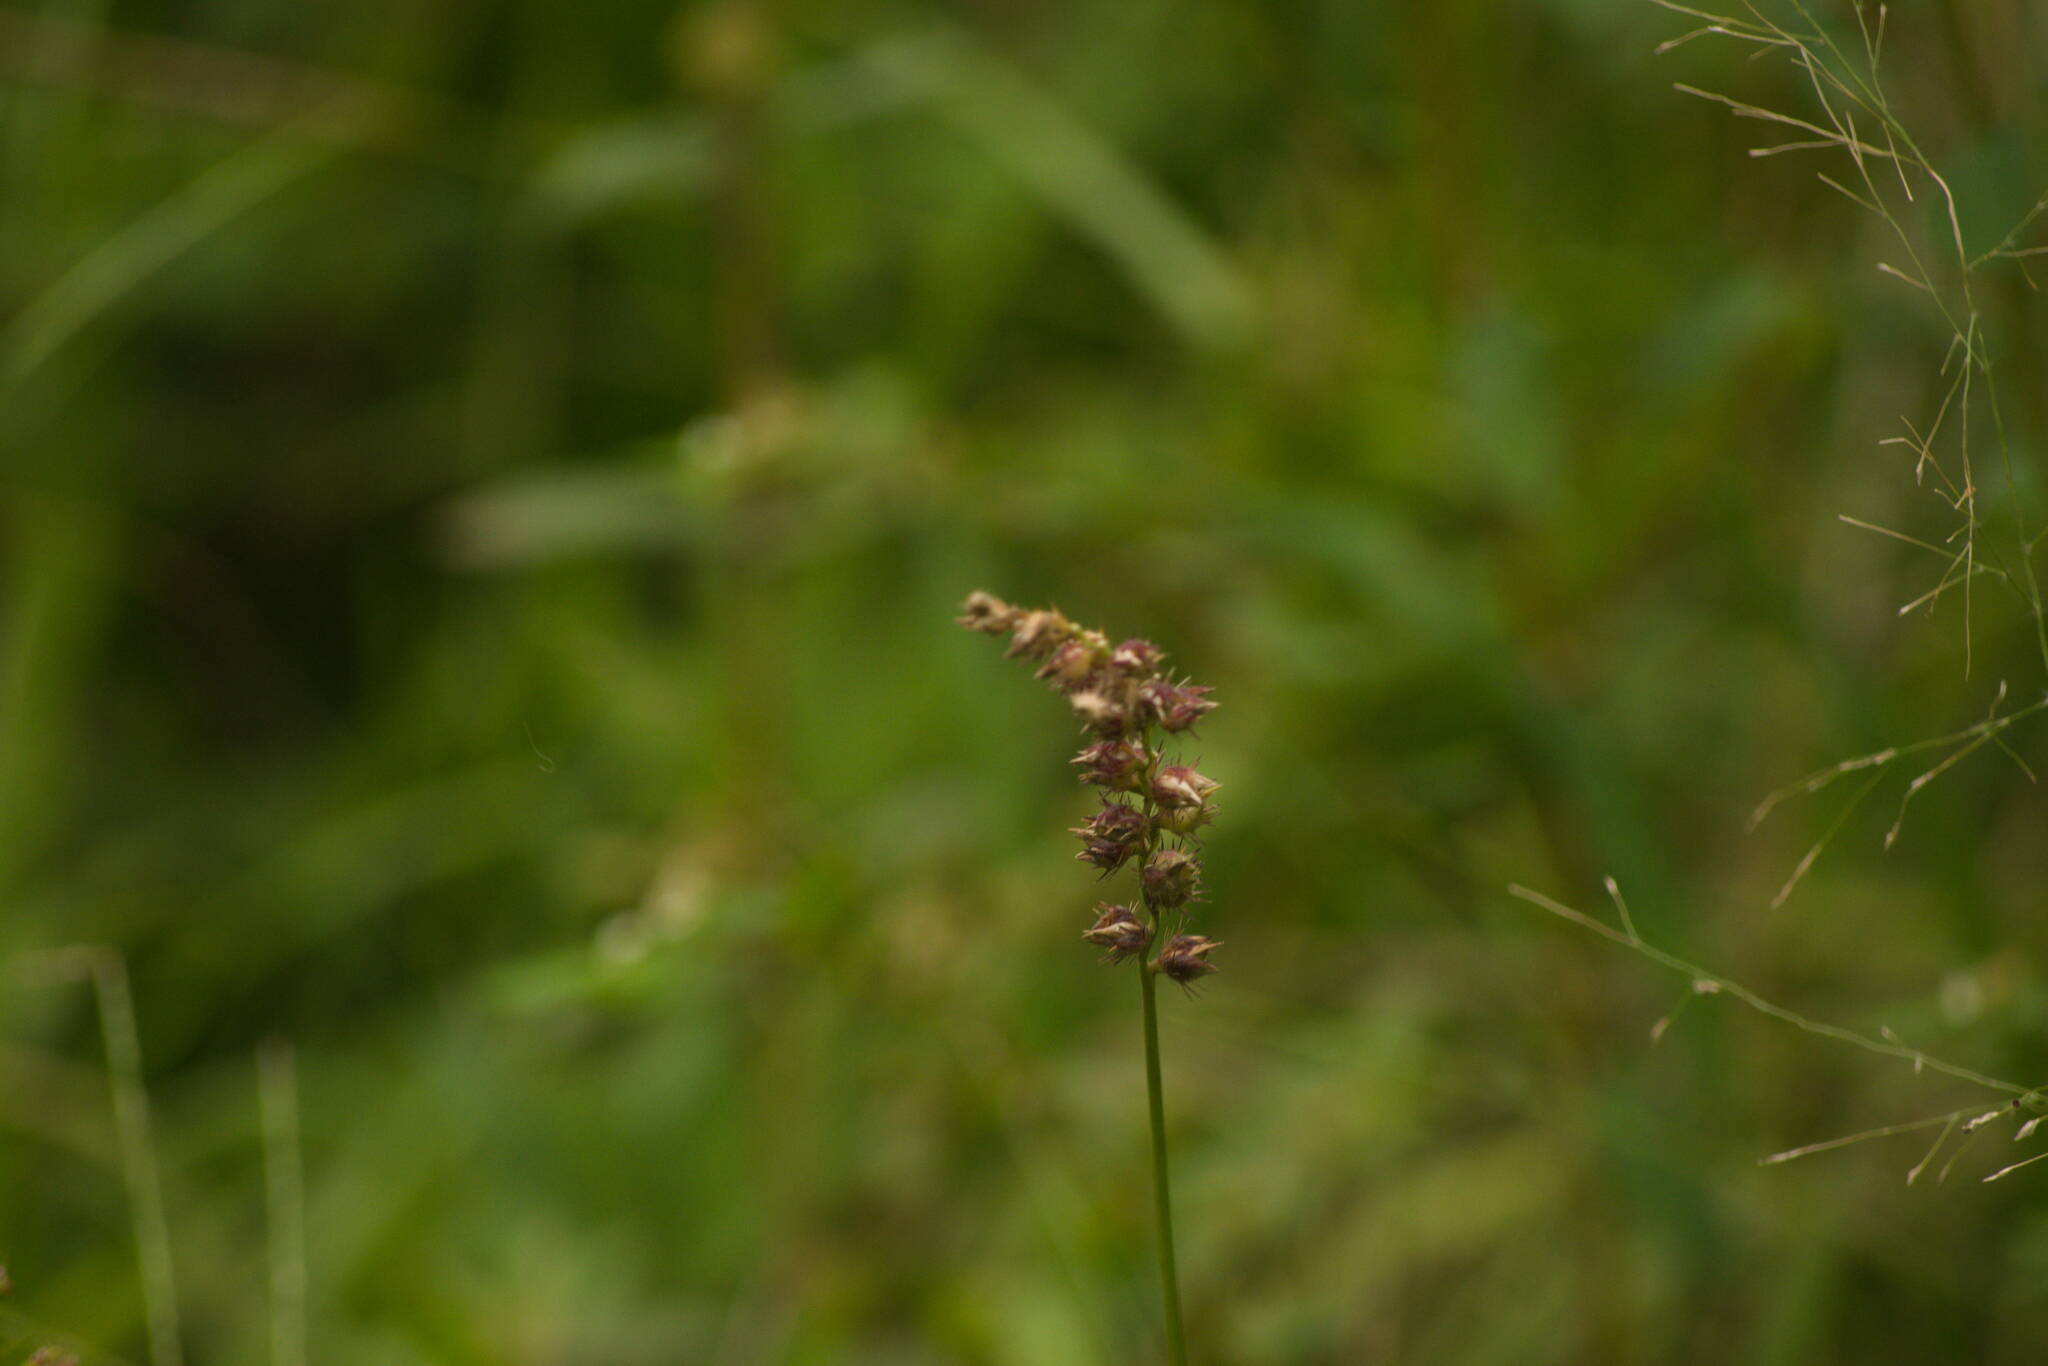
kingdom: Plantae
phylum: Tracheophyta
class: Liliopsida
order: Poales
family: Poaceae
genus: Cenchrus
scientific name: Cenchrus echinatus
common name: Southern sandbur
